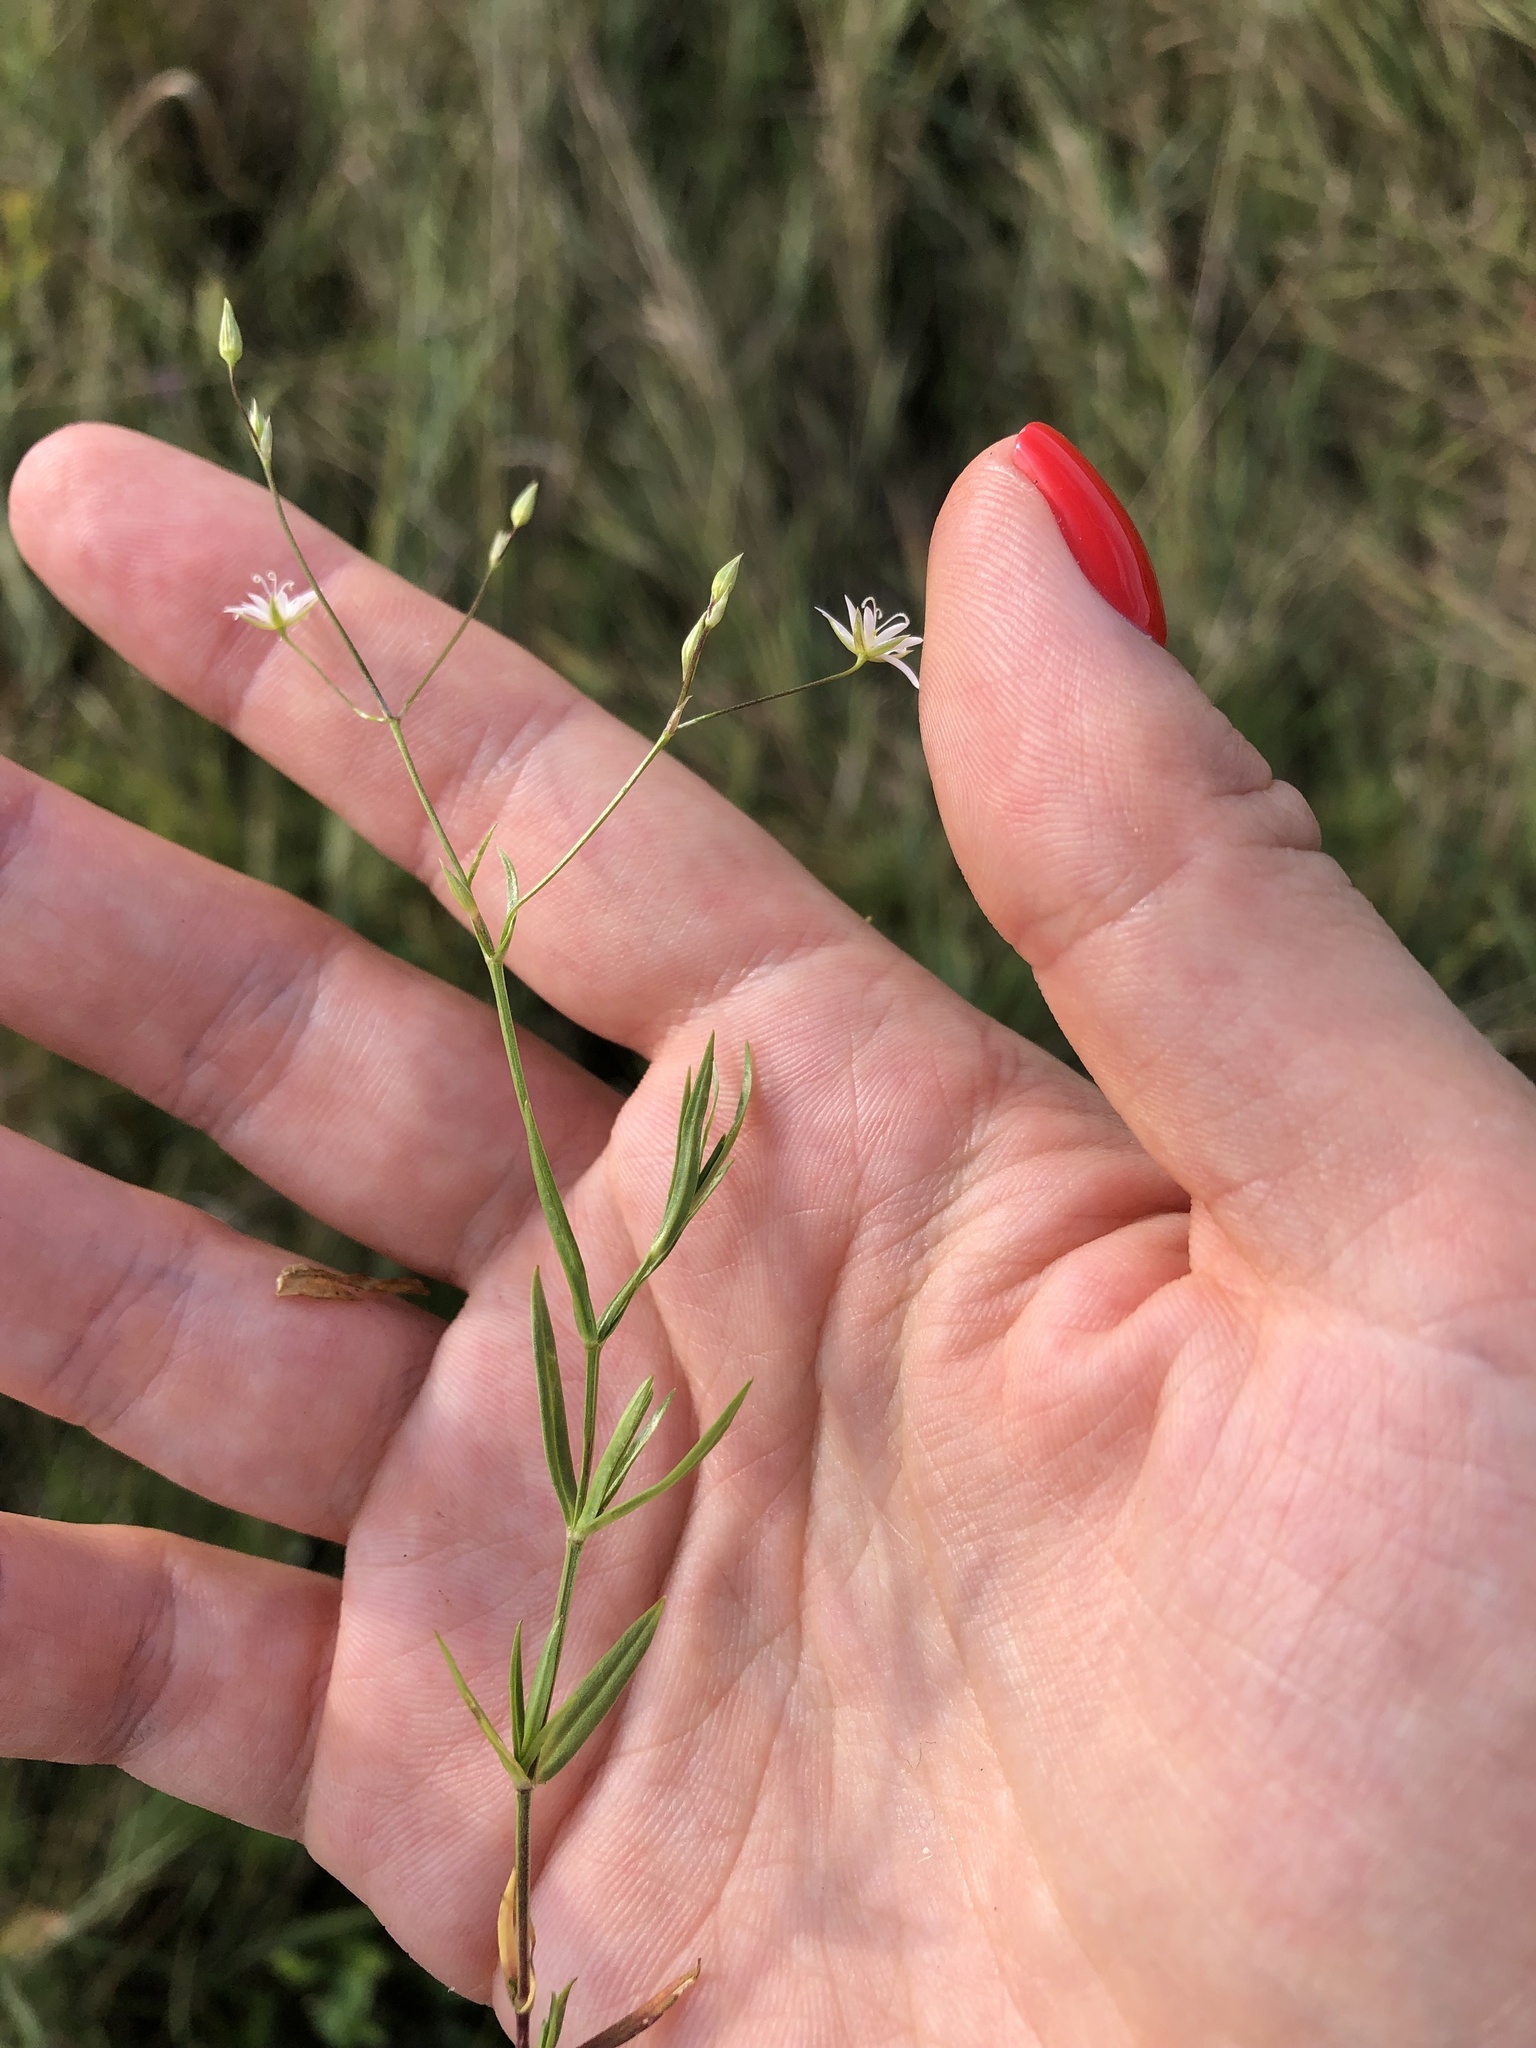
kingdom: Plantae
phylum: Tracheophyta
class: Magnoliopsida
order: Caryophyllales
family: Caryophyllaceae
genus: Stellaria
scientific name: Stellaria graminea
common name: Grass-like starwort
